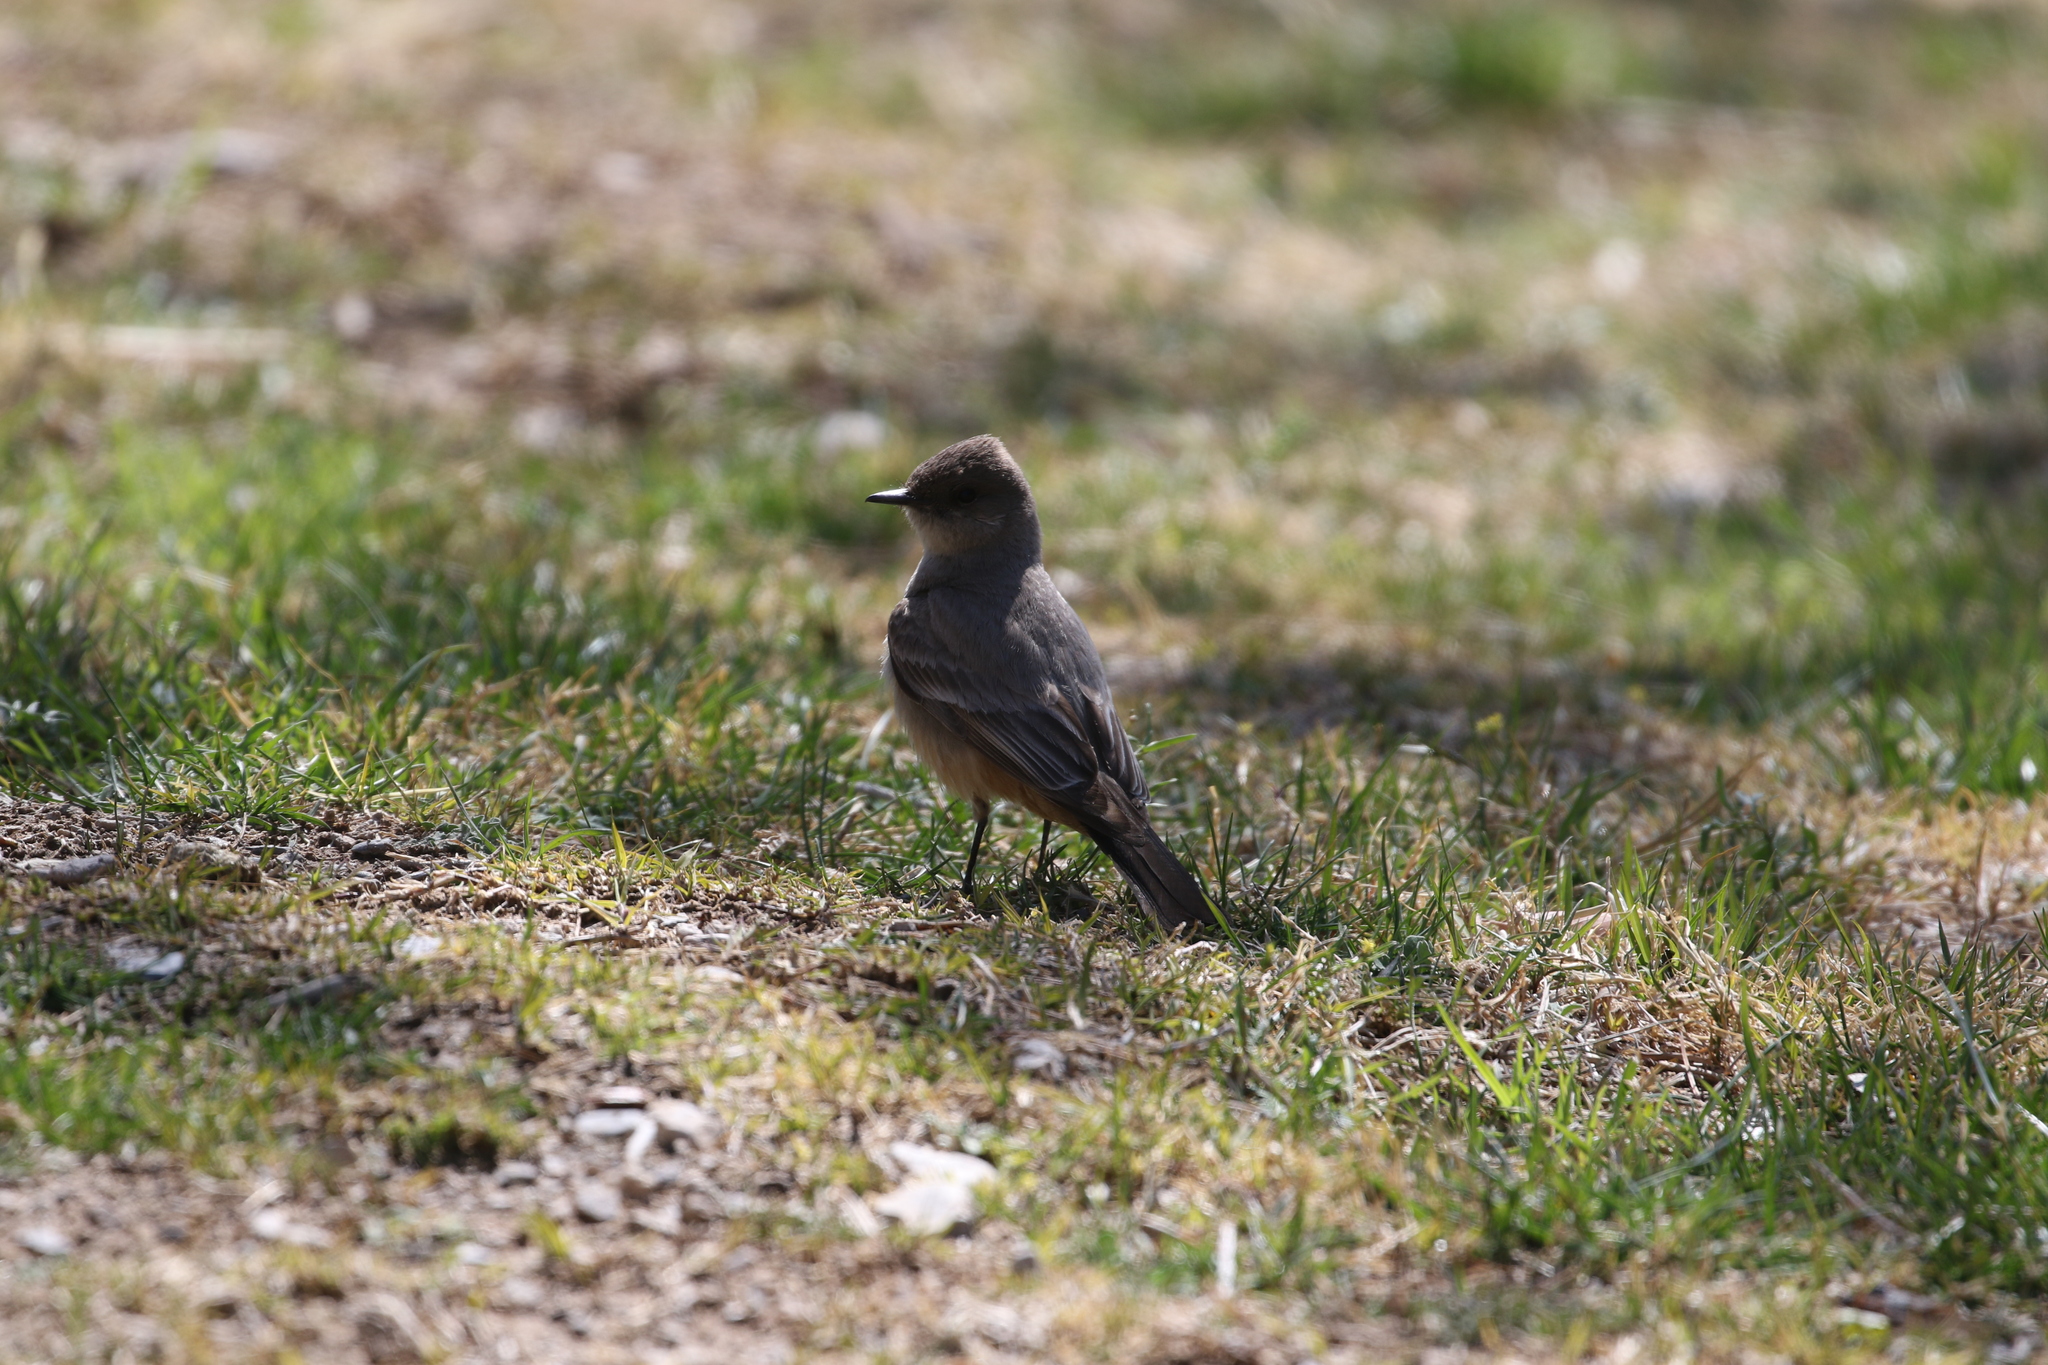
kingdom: Animalia
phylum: Chordata
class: Aves
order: Passeriformes
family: Tyrannidae
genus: Sayornis
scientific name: Sayornis saya
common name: Say's phoebe
